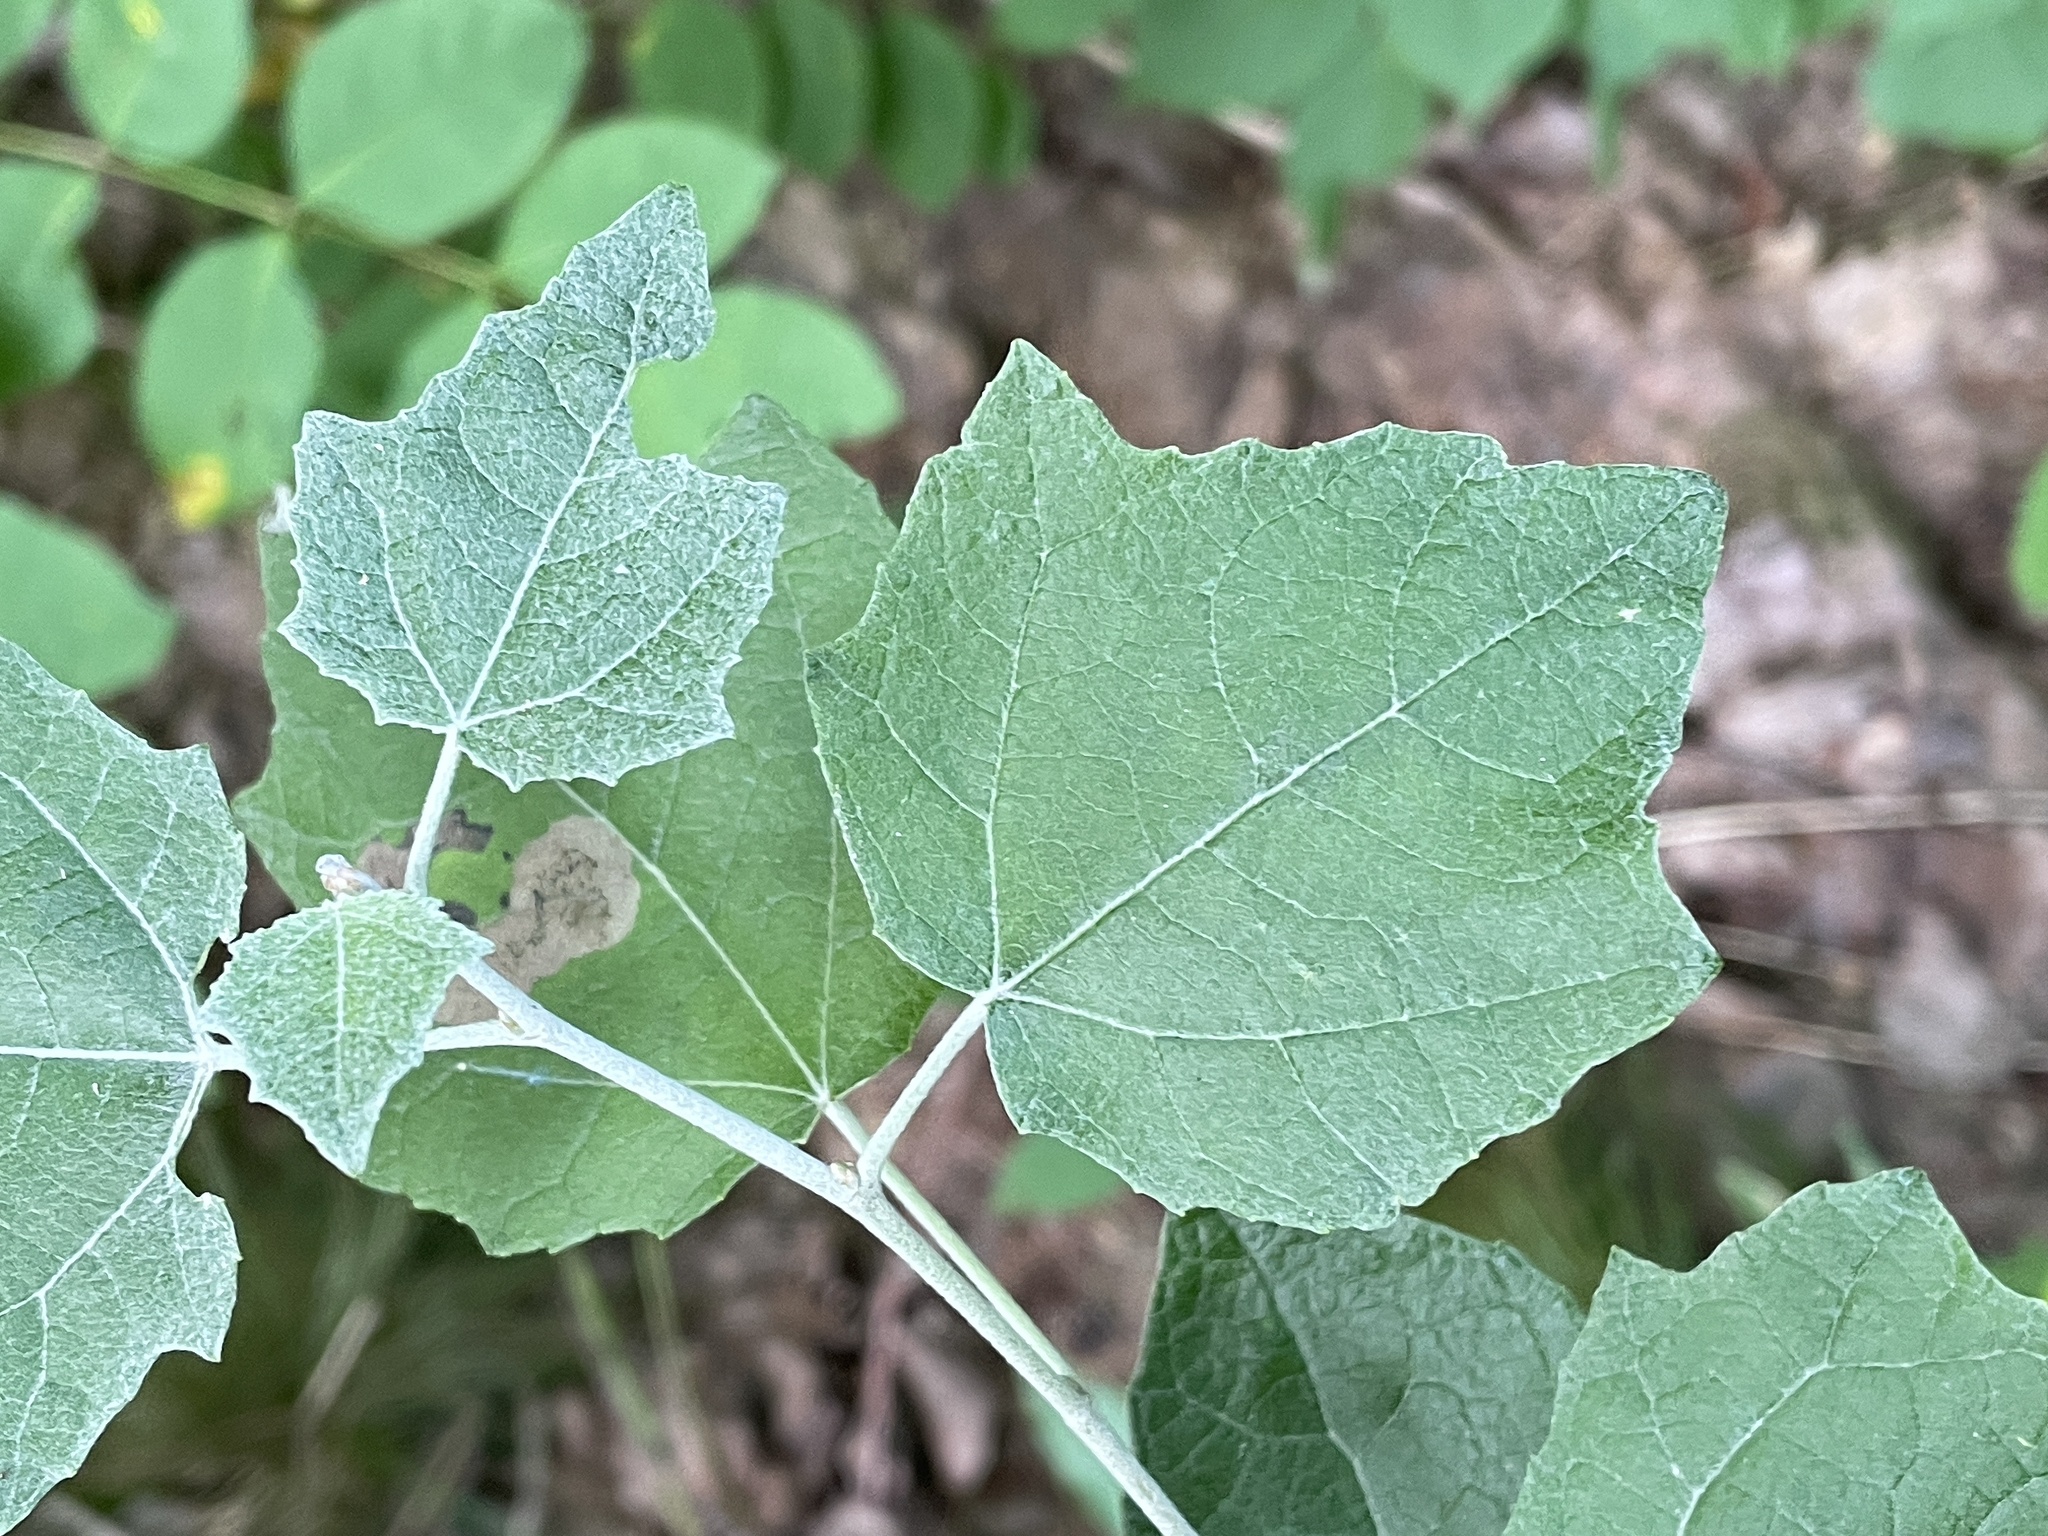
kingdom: Plantae
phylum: Tracheophyta
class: Magnoliopsida
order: Malpighiales
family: Salicaceae
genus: Populus
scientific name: Populus alba
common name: White poplar
